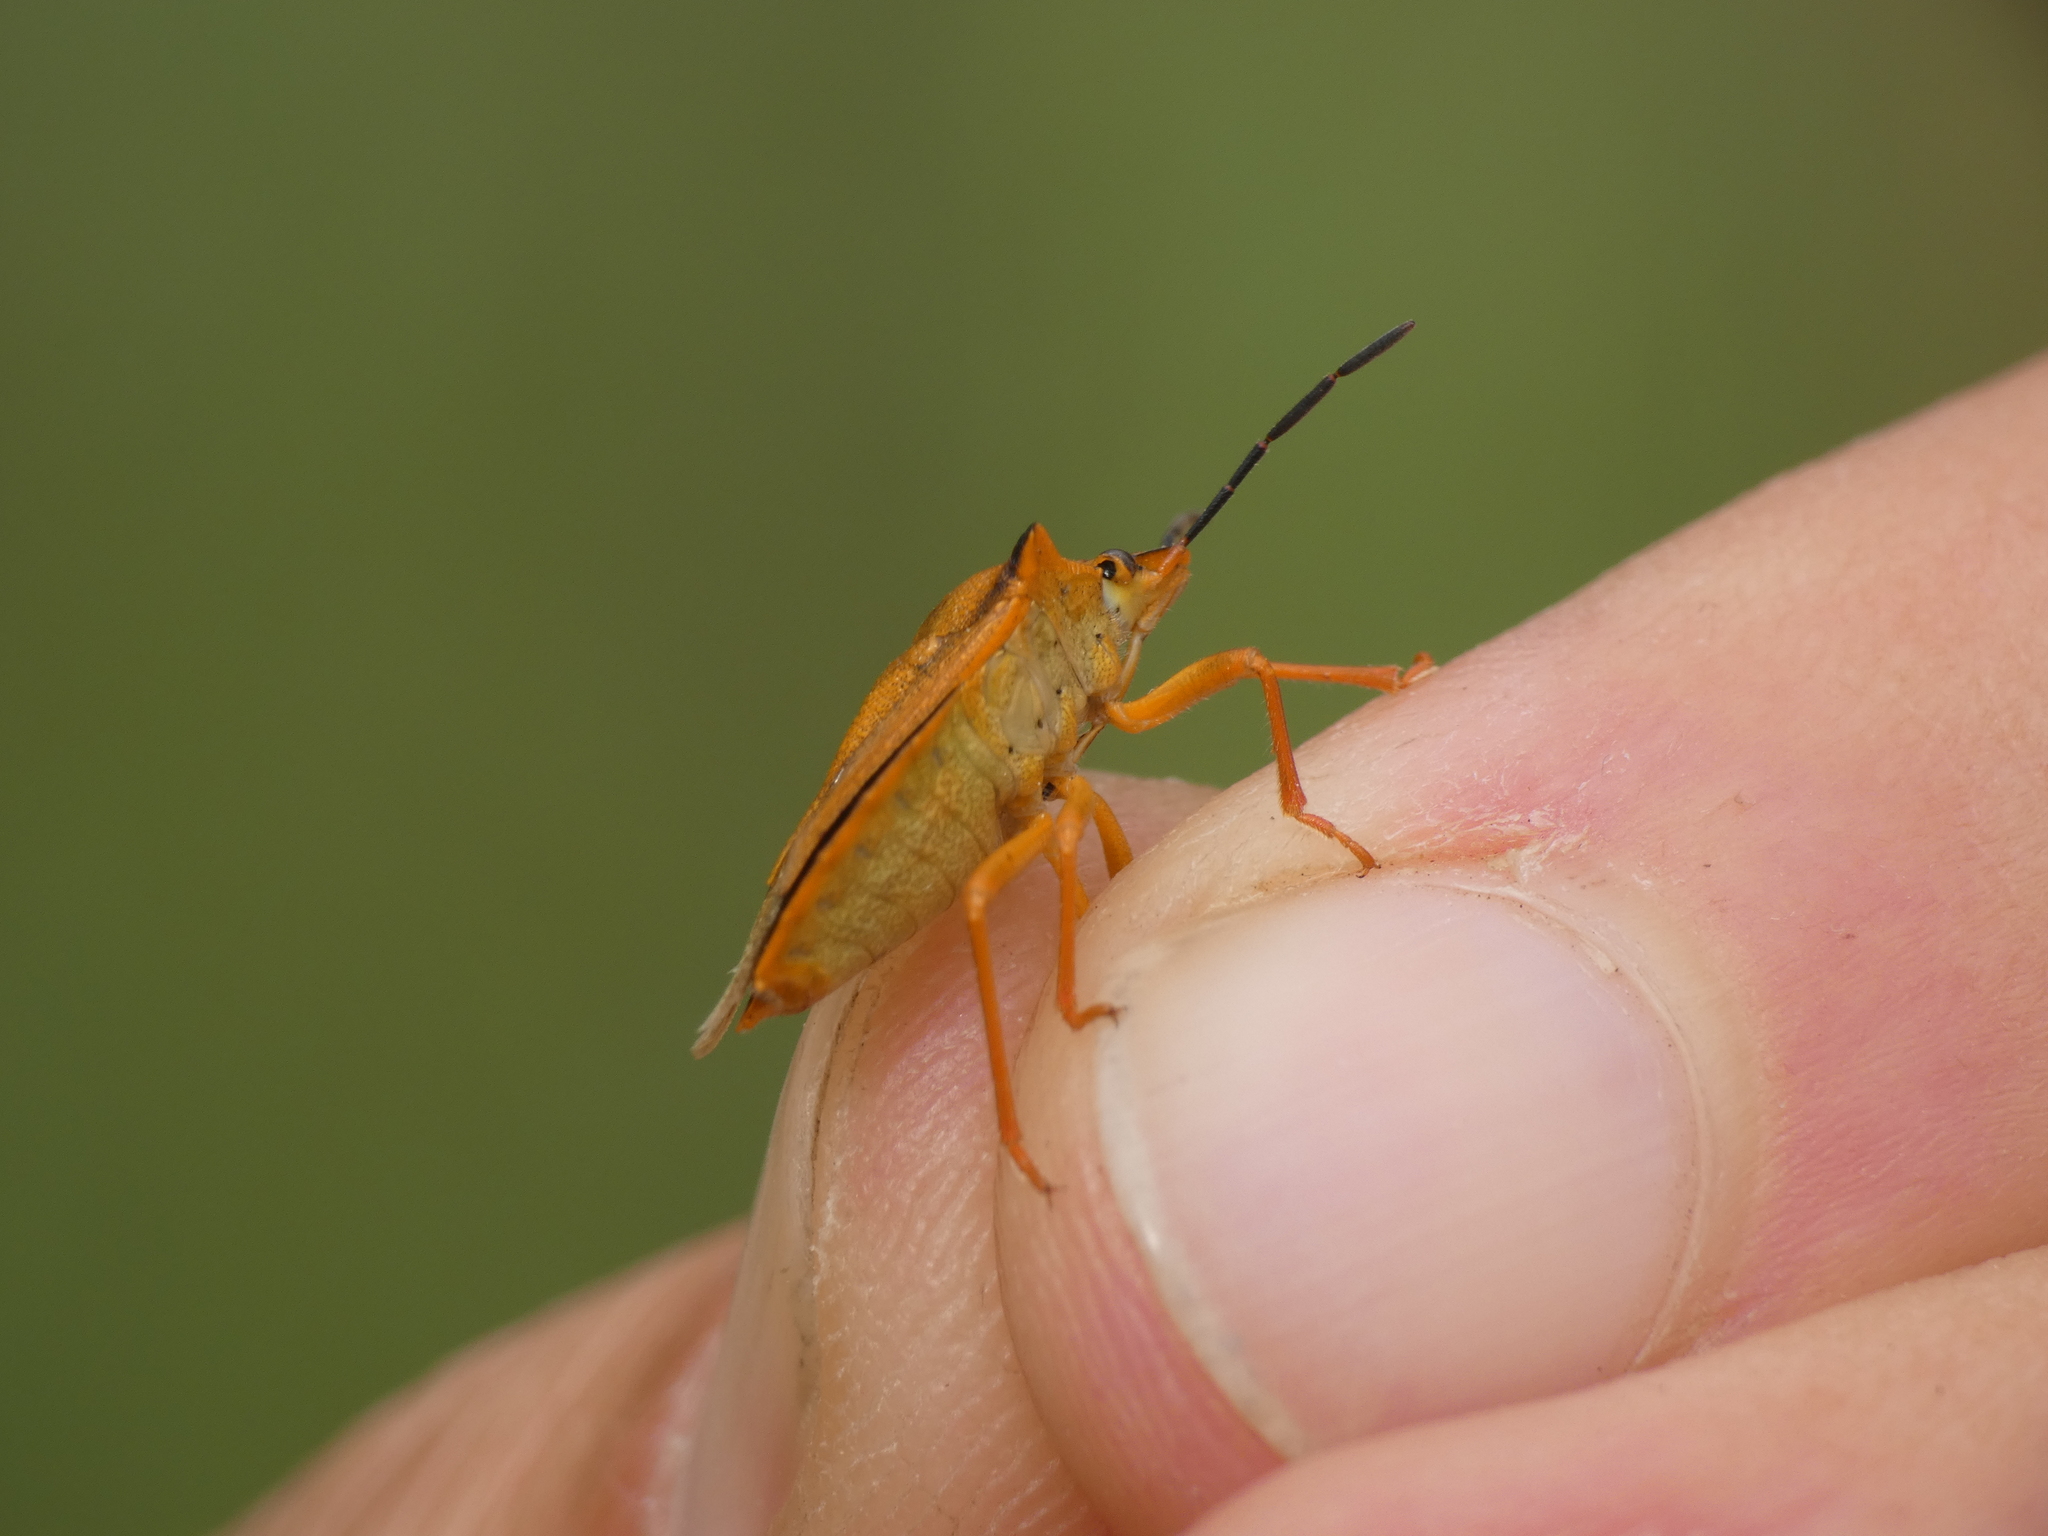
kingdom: Animalia
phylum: Arthropoda
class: Insecta
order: Hemiptera
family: Pentatomidae
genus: Carpocoris
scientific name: Carpocoris mediterraneus
